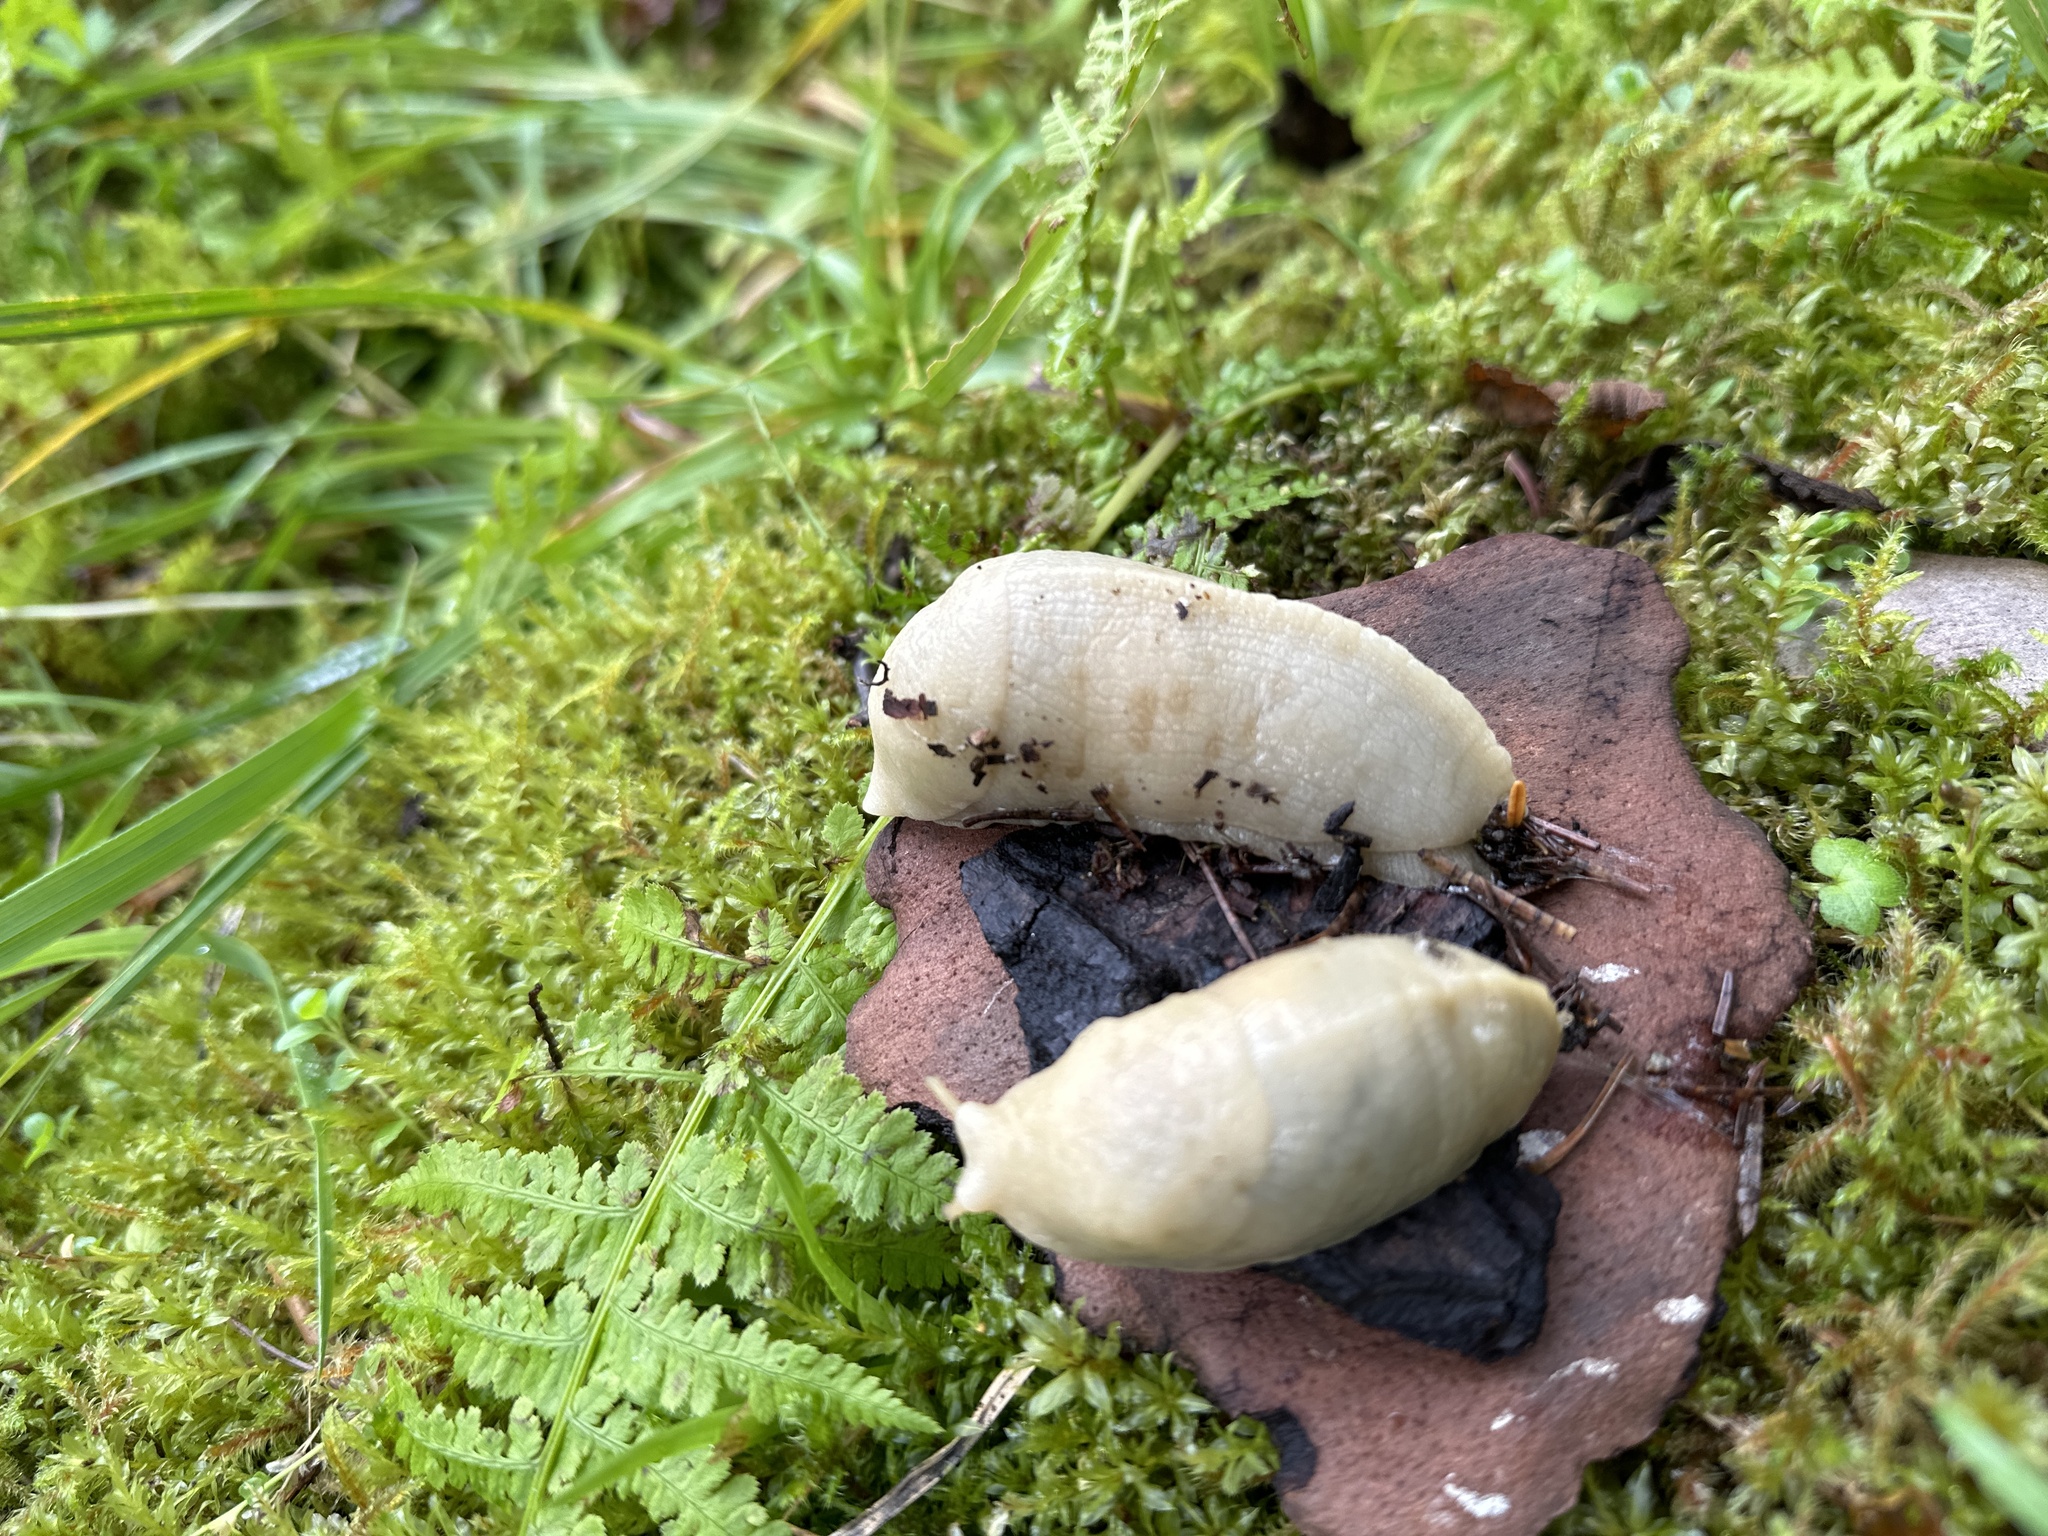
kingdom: Animalia
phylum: Mollusca
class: Gastropoda
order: Stylommatophora
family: Ariolimacidae
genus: Ariolimax
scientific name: Ariolimax columbianus
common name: Pacific banana slug
